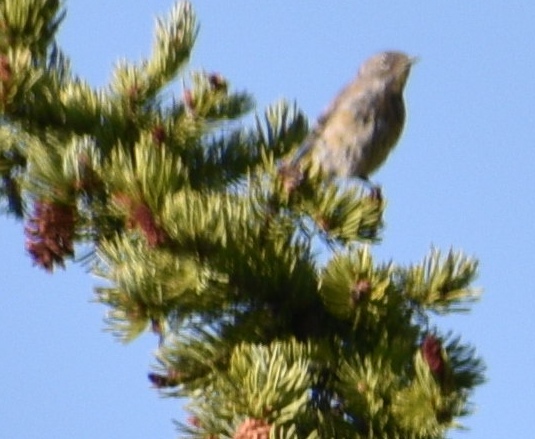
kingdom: Animalia
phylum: Chordata
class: Aves
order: Passeriformes
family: Parulidae
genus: Setophaga
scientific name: Setophaga coronata
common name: Myrtle warbler
